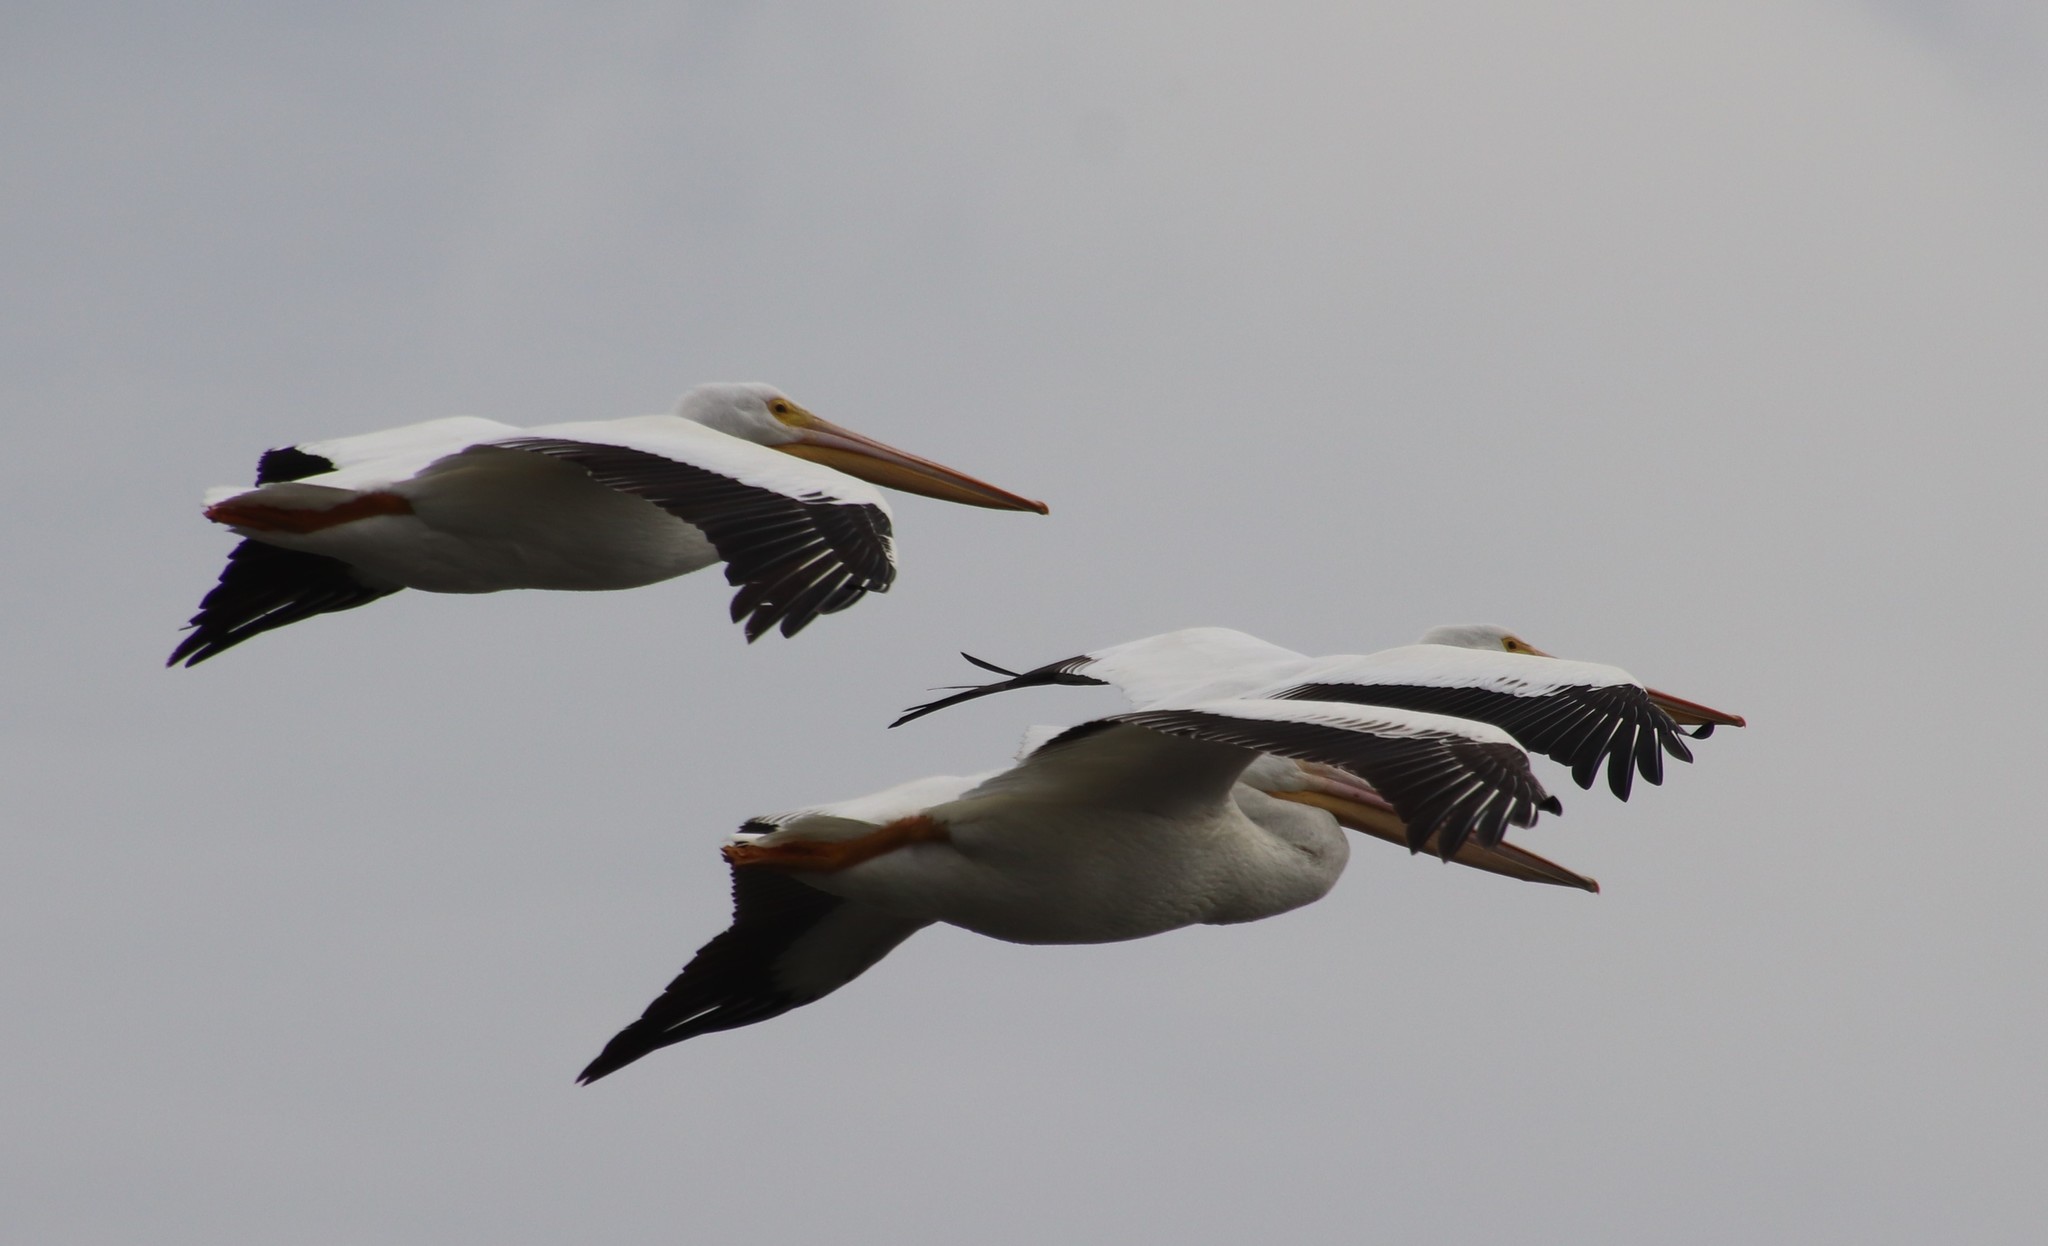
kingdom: Animalia
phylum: Chordata
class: Aves
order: Pelecaniformes
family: Pelecanidae
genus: Pelecanus
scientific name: Pelecanus erythrorhynchos
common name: American white pelican
